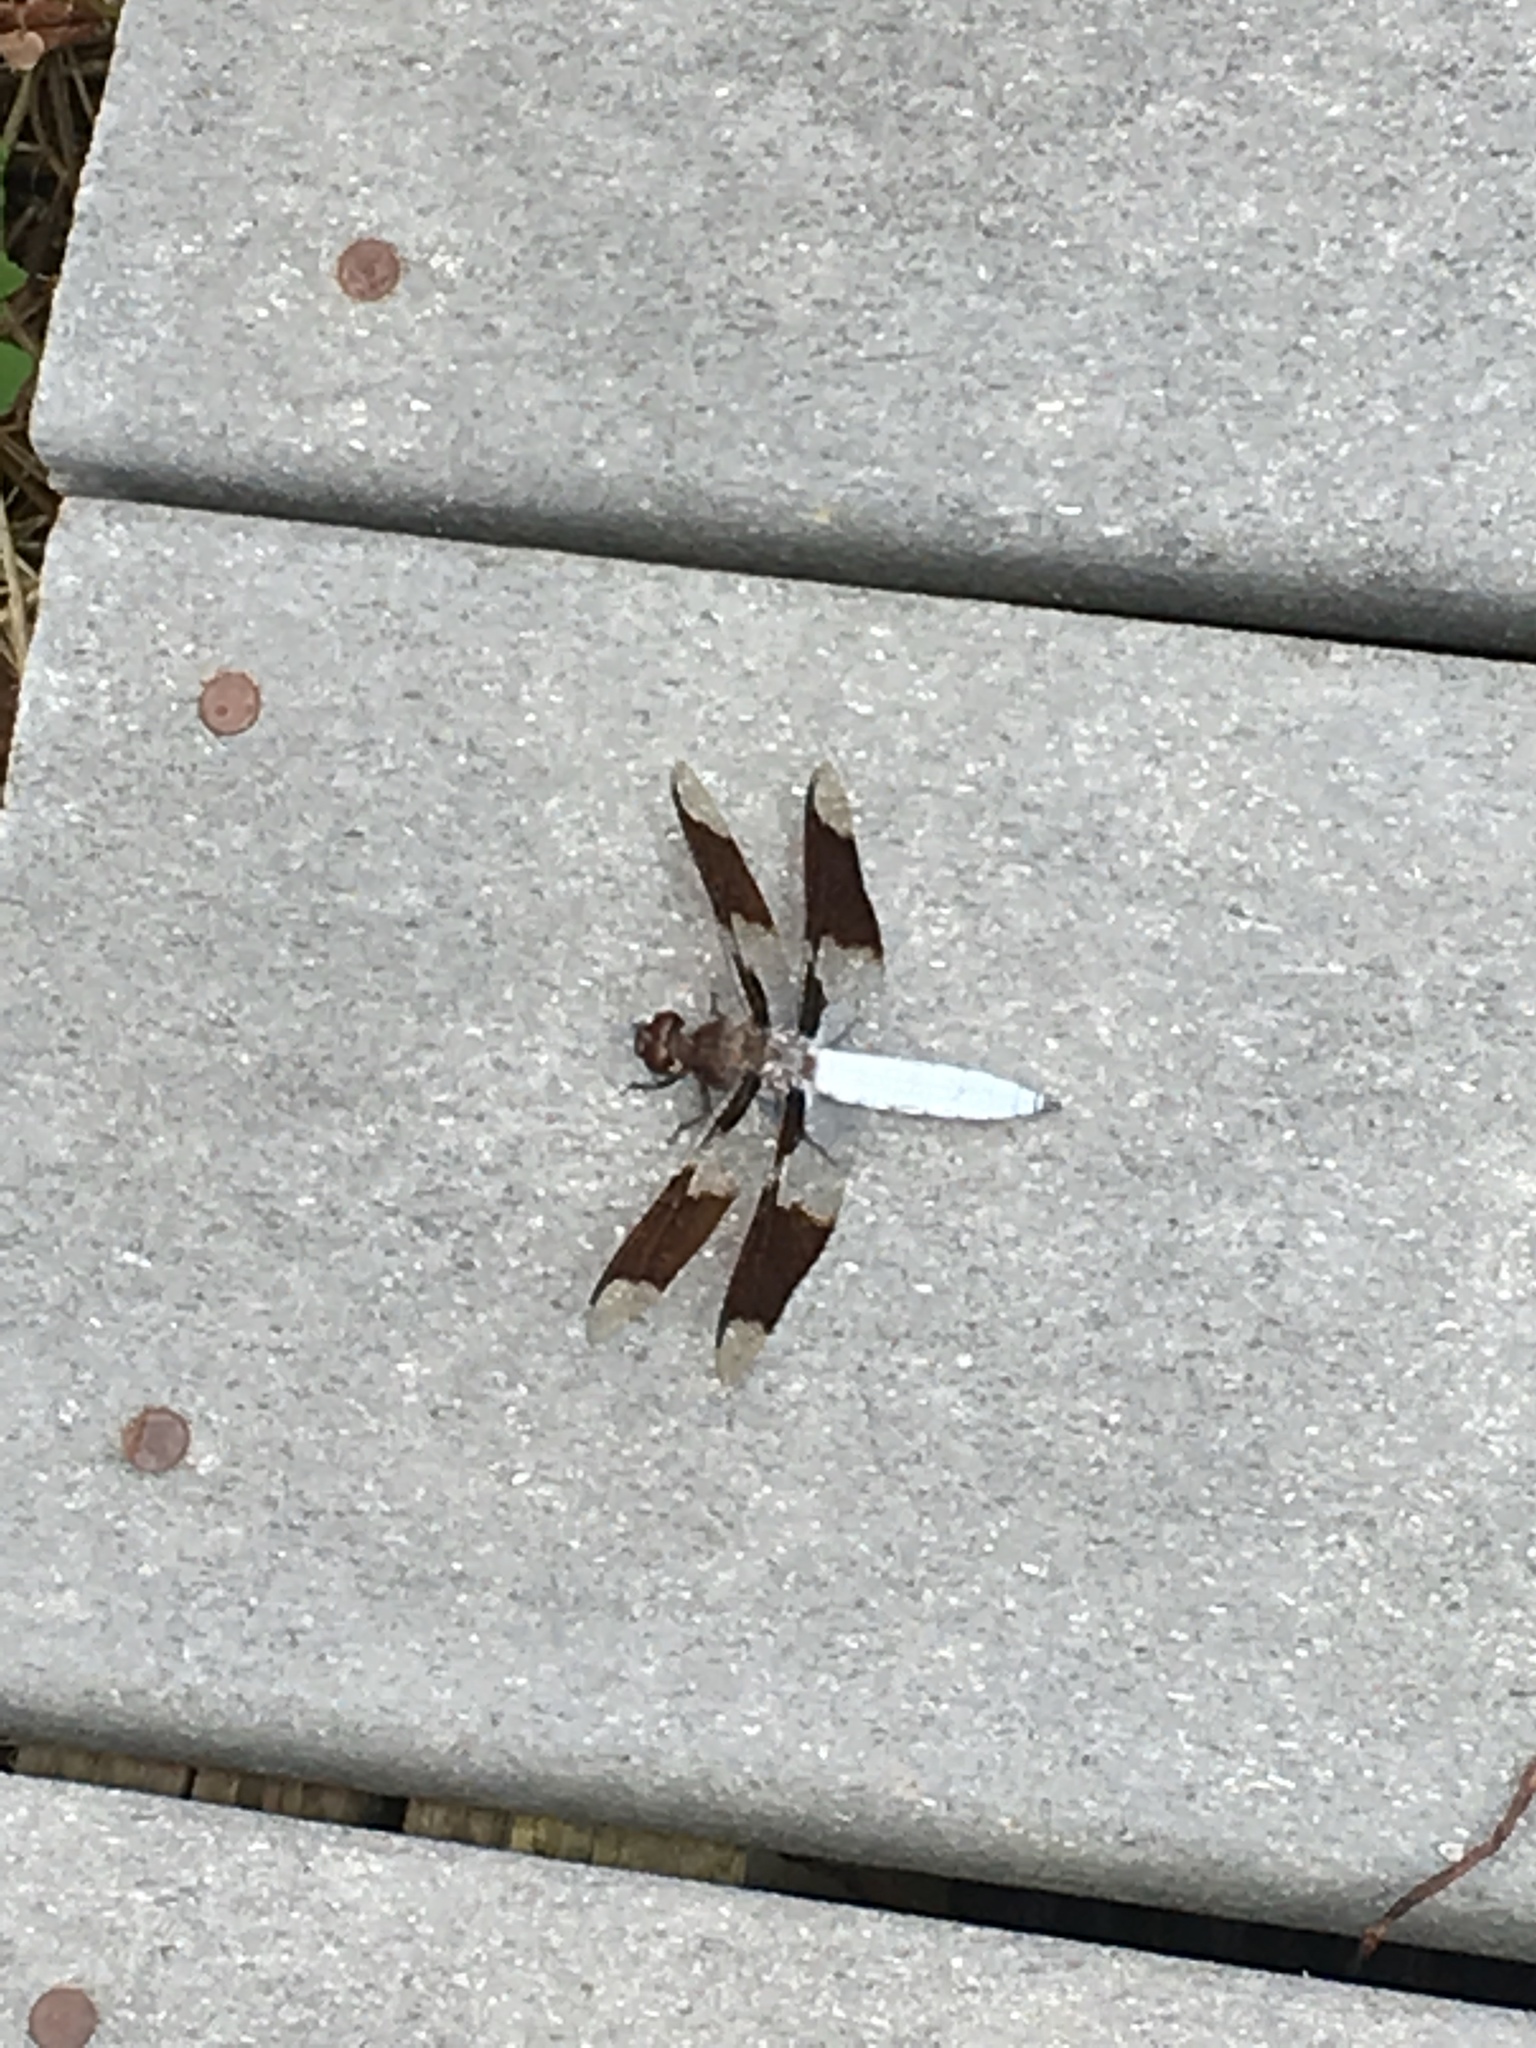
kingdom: Animalia
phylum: Arthropoda
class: Insecta
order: Odonata
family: Libellulidae
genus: Plathemis
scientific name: Plathemis lydia
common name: Common whitetail
